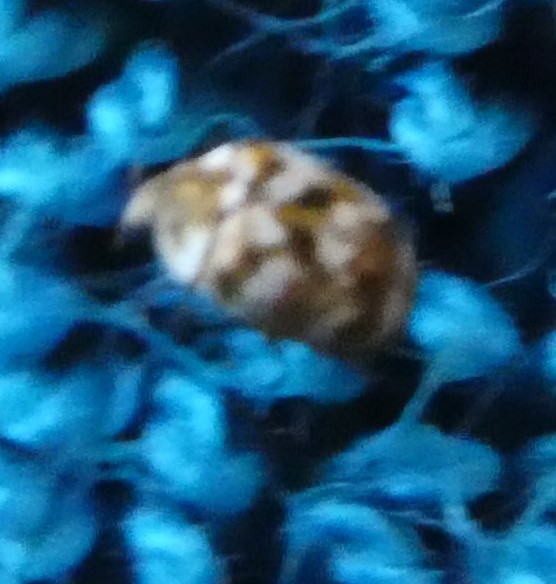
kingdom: Animalia
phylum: Arthropoda
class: Insecta
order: Coleoptera
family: Dermestidae
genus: Anthrenus
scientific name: Anthrenus verbasci
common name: Varied carpet beetle
